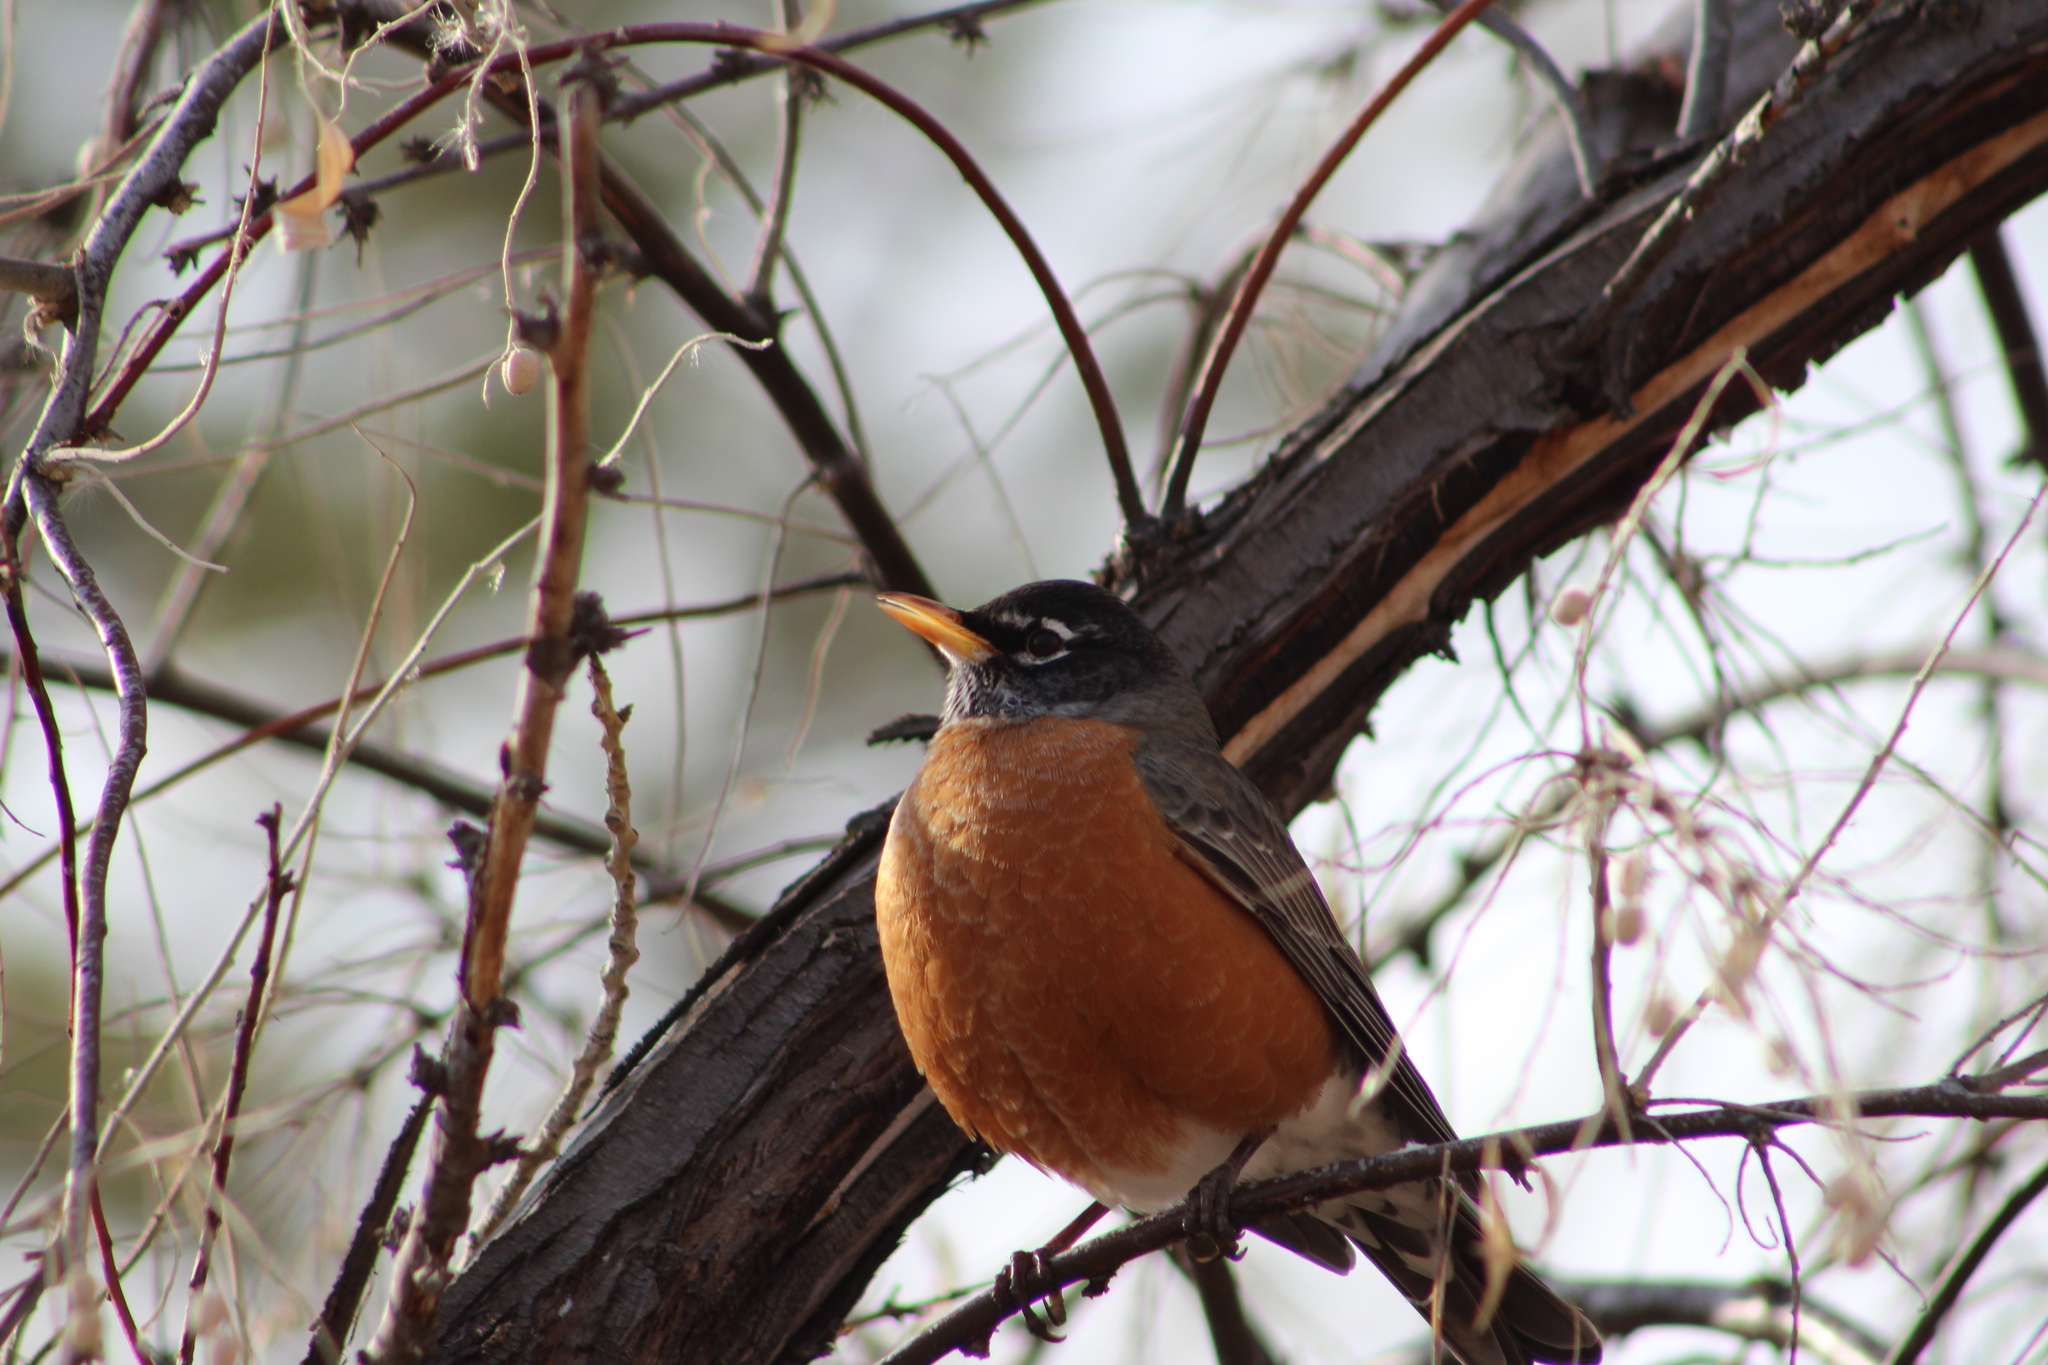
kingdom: Animalia
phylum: Chordata
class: Aves
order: Passeriformes
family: Turdidae
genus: Turdus
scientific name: Turdus migratorius
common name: American robin
